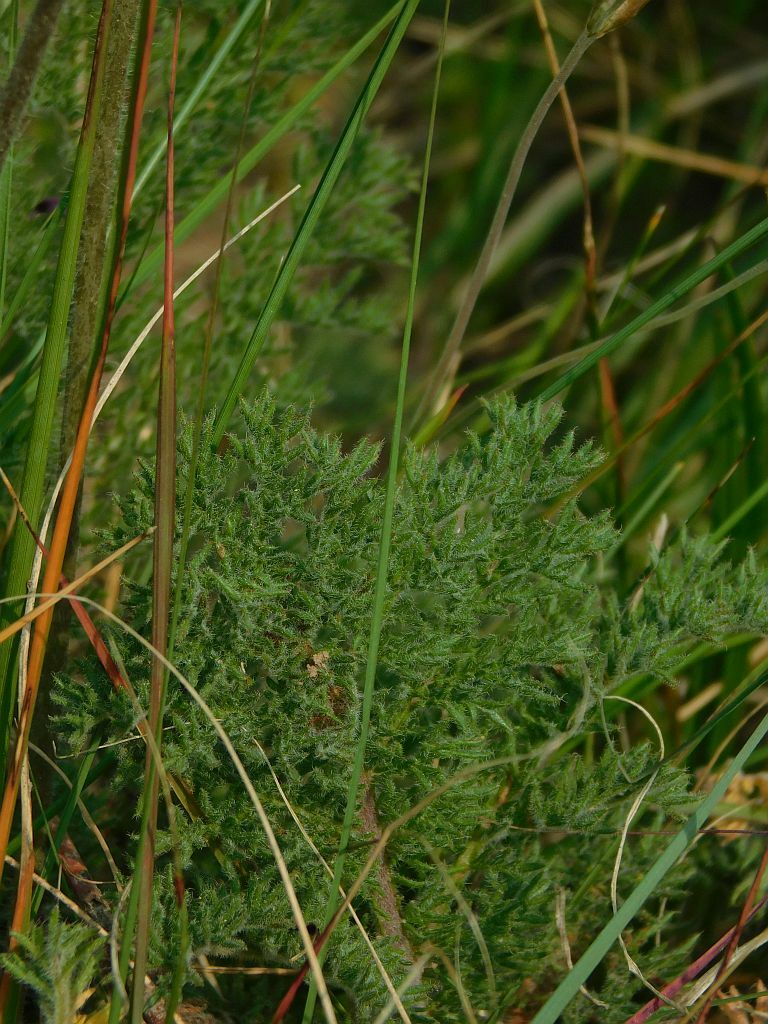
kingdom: Plantae
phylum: Tracheophyta
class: Magnoliopsida
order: Geraniales
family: Geraniaceae
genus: Pelargonium
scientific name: Pelargonium triste
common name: Night-scent pelargonium
